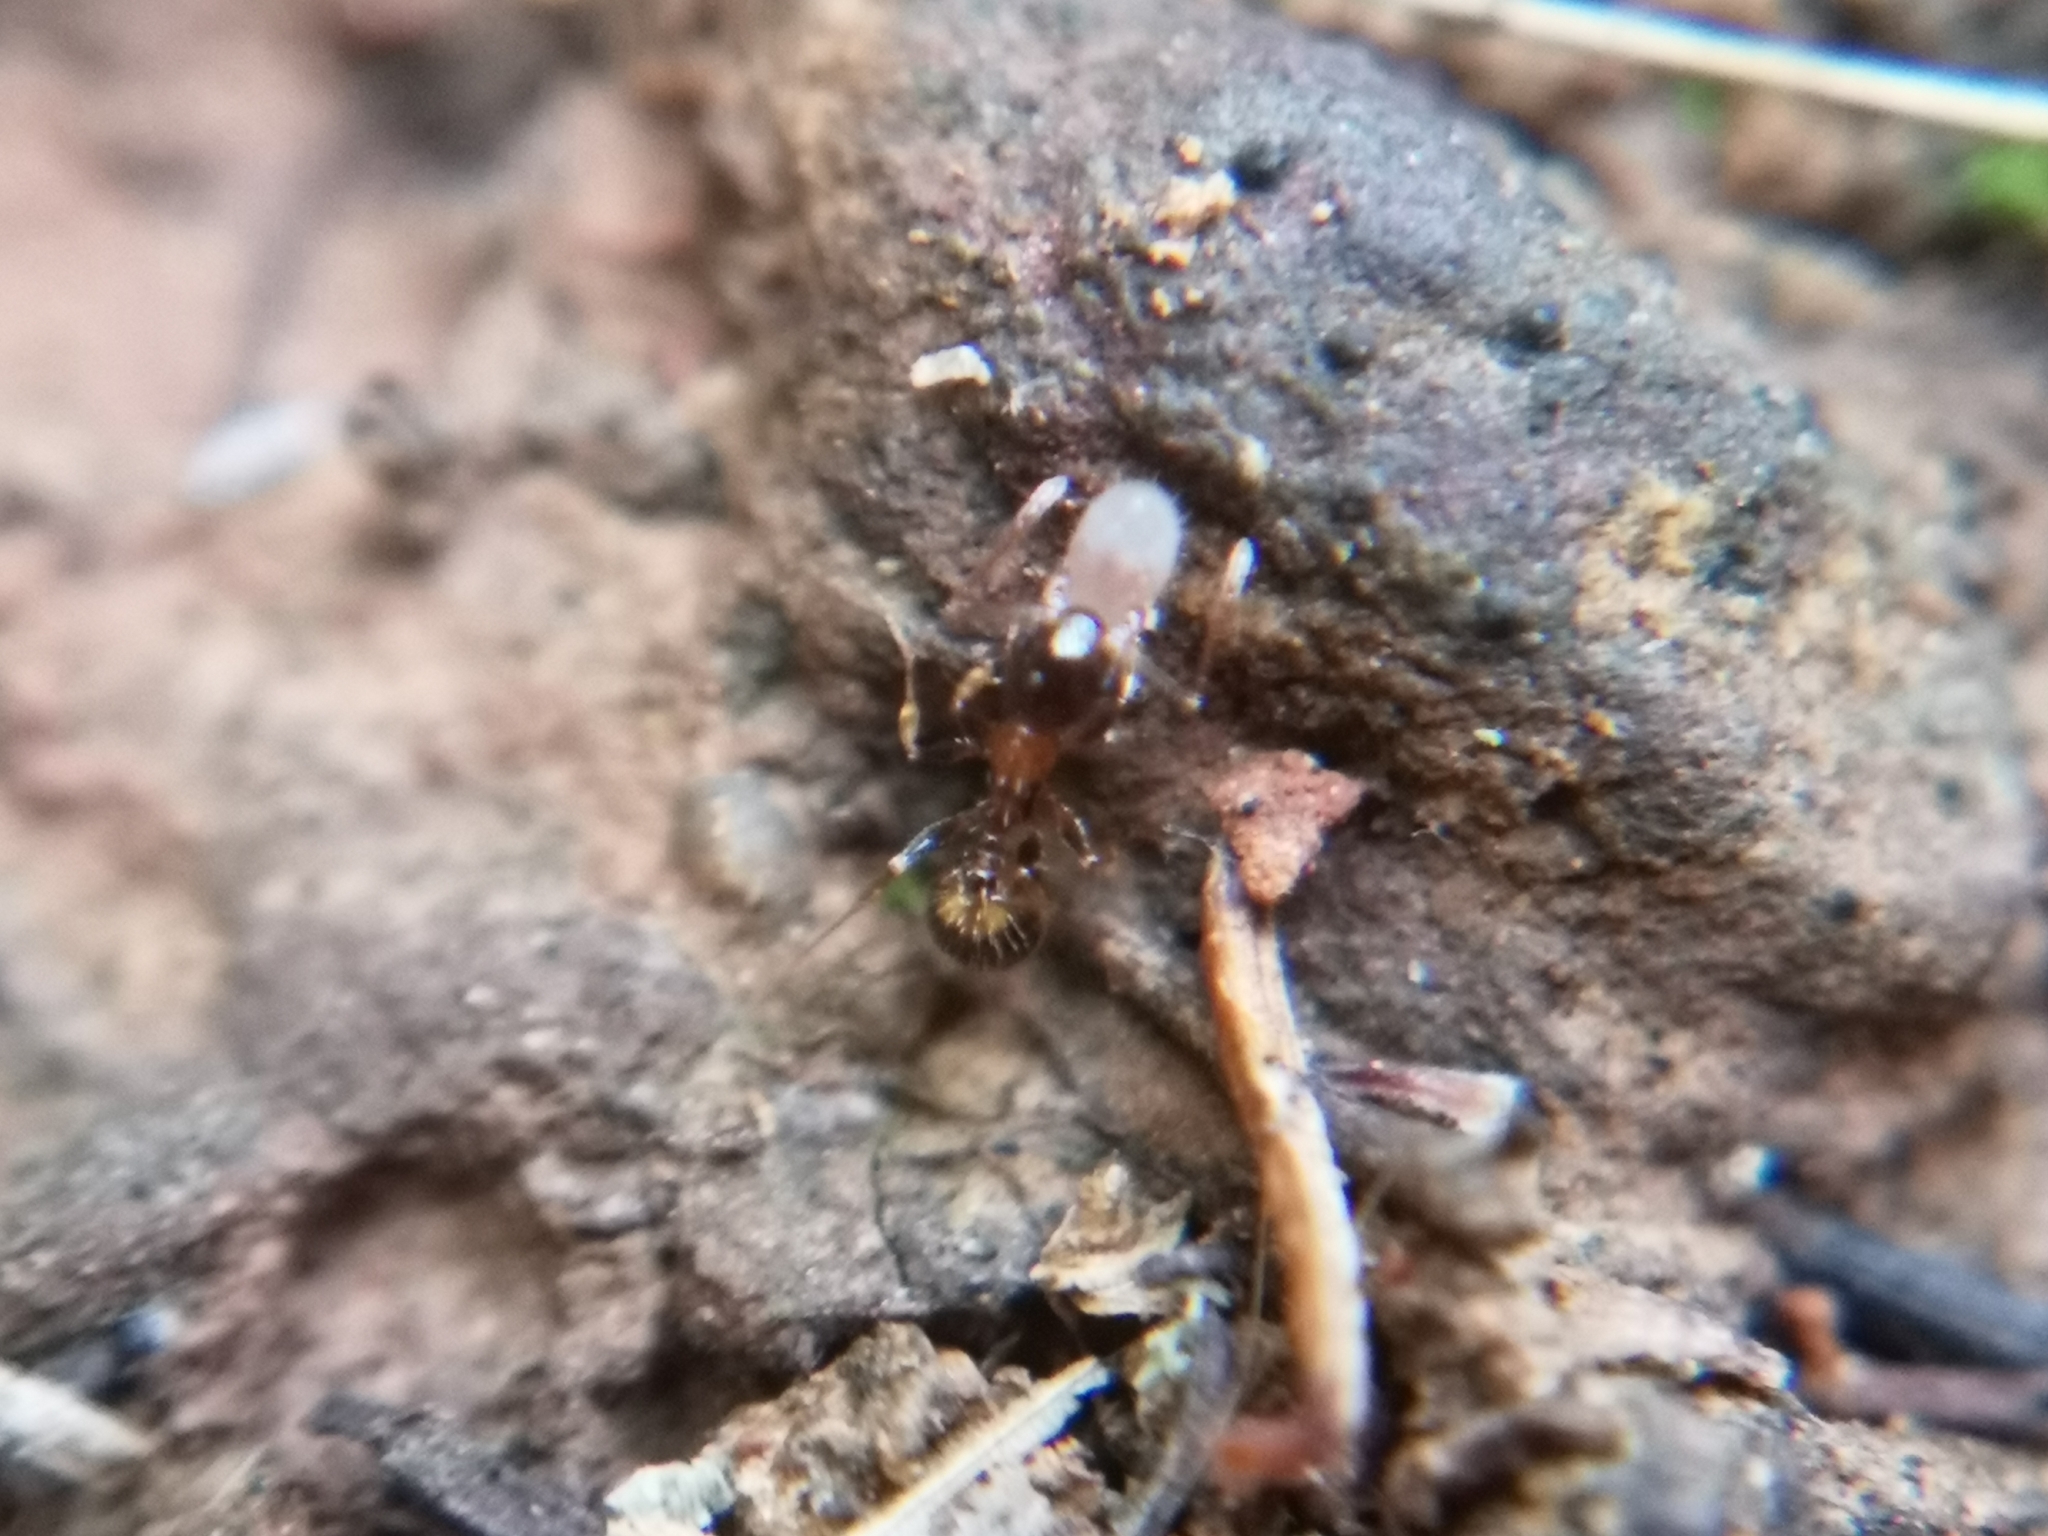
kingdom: Animalia
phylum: Arthropoda
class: Insecta
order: Hymenoptera
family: Formicidae
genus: Leptothorax
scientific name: Leptothorax recedens
